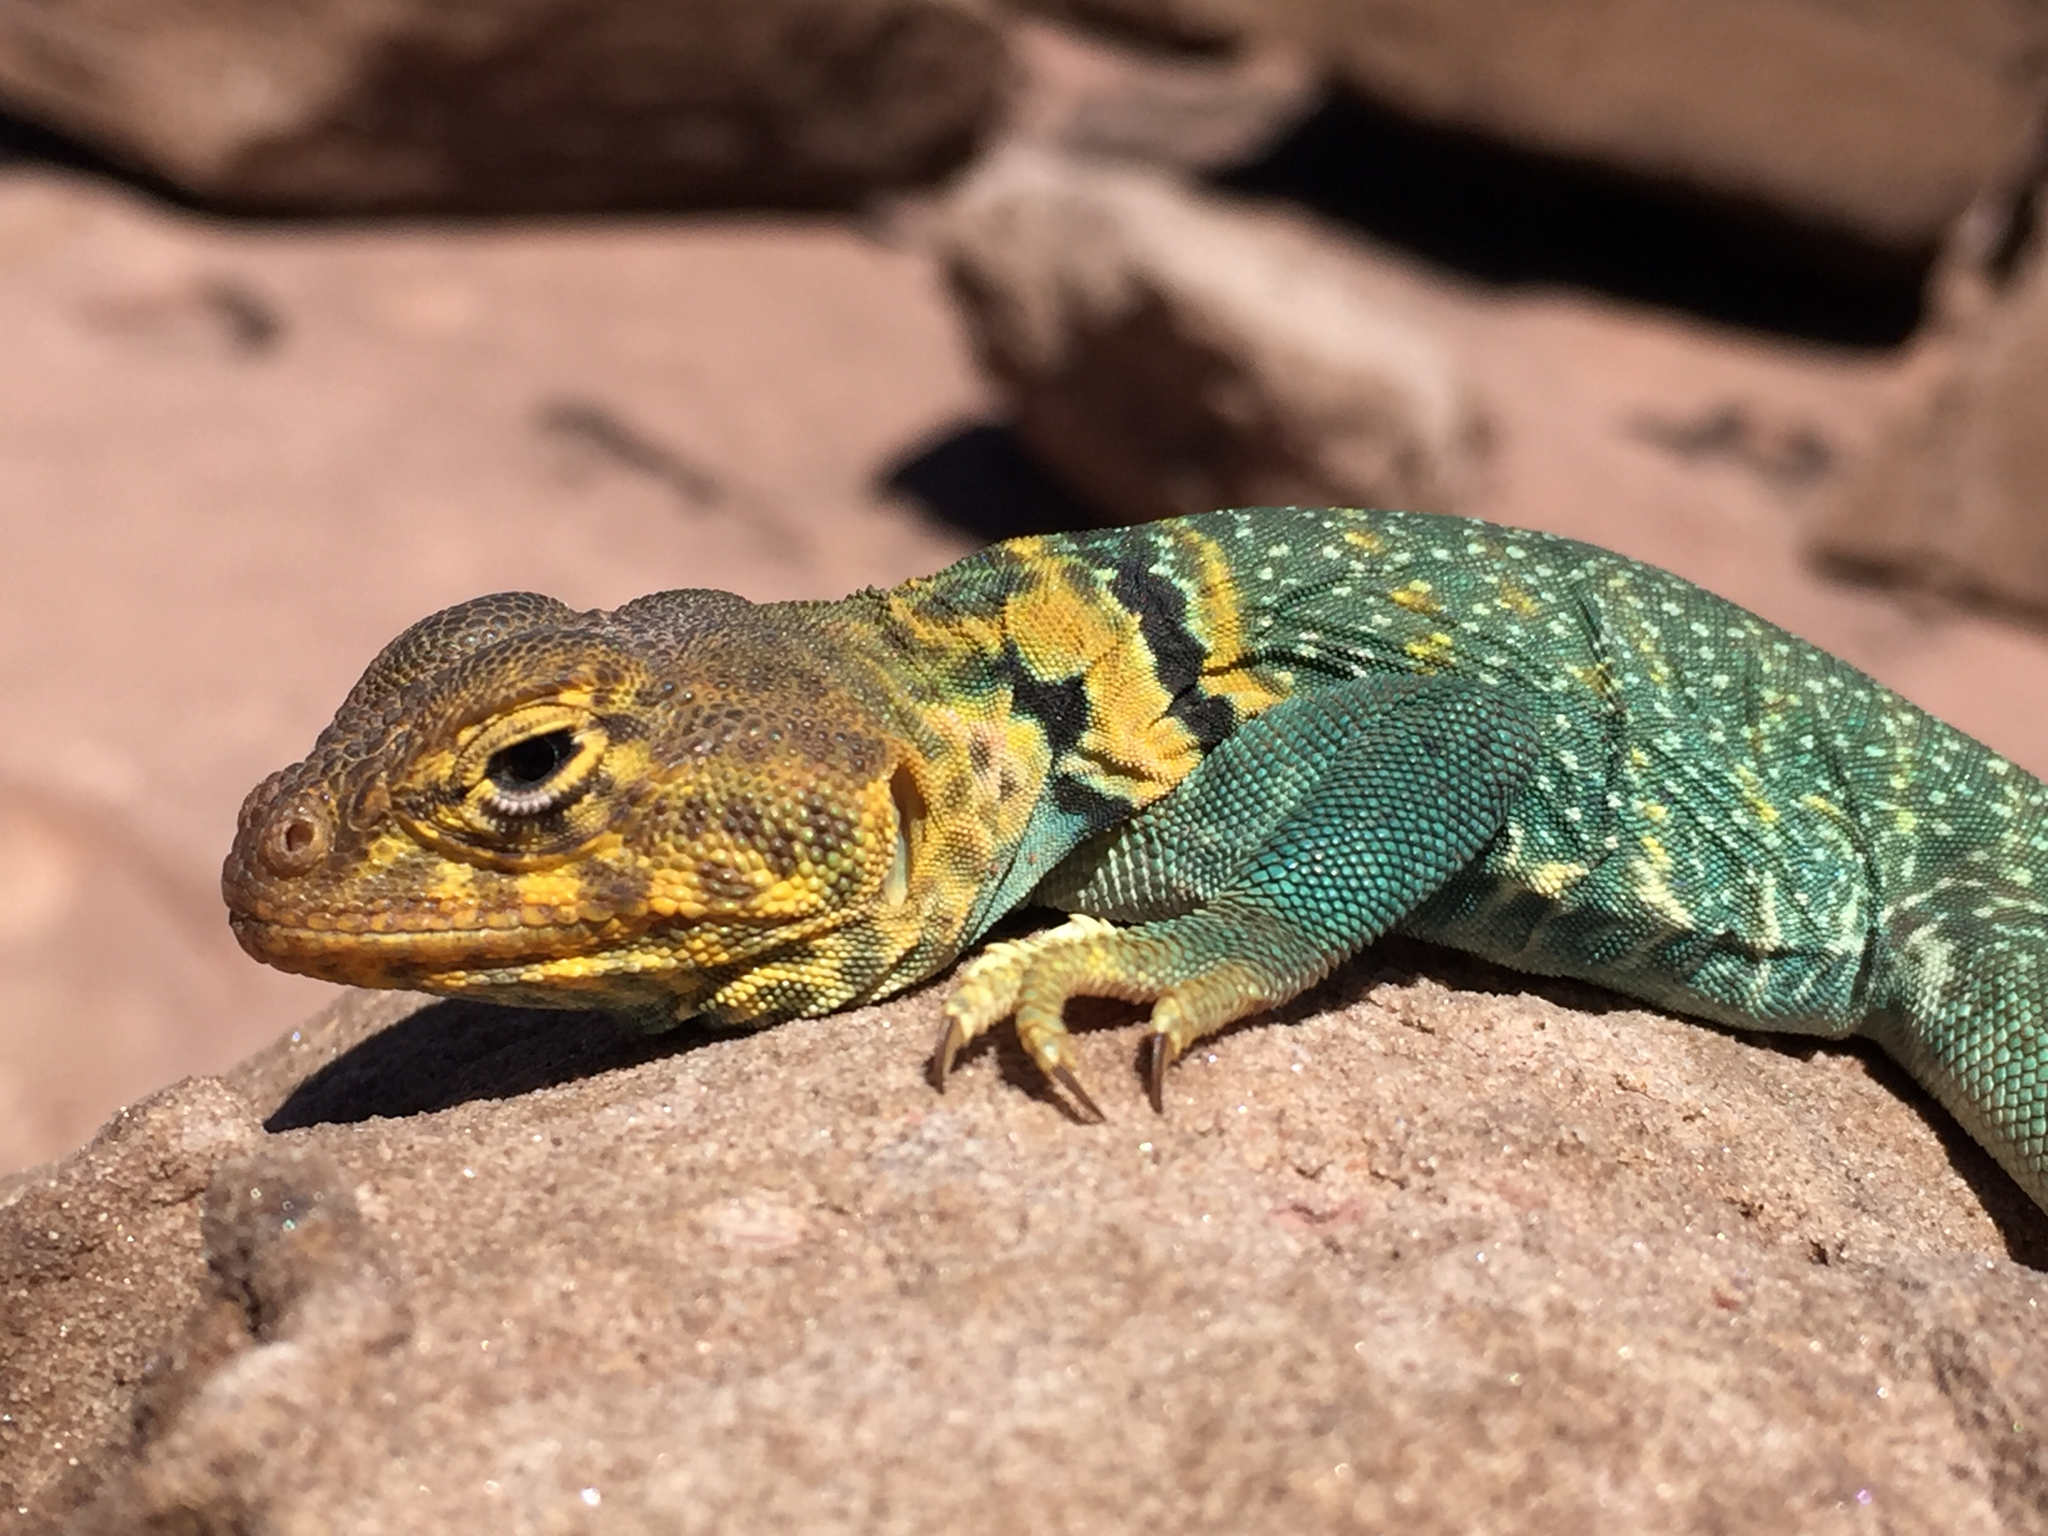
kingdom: Animalia
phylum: Chordata
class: Squamata
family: Crotaphytidae
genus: Crotaphytus
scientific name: Crotaphytus collaris
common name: Collared lizard
